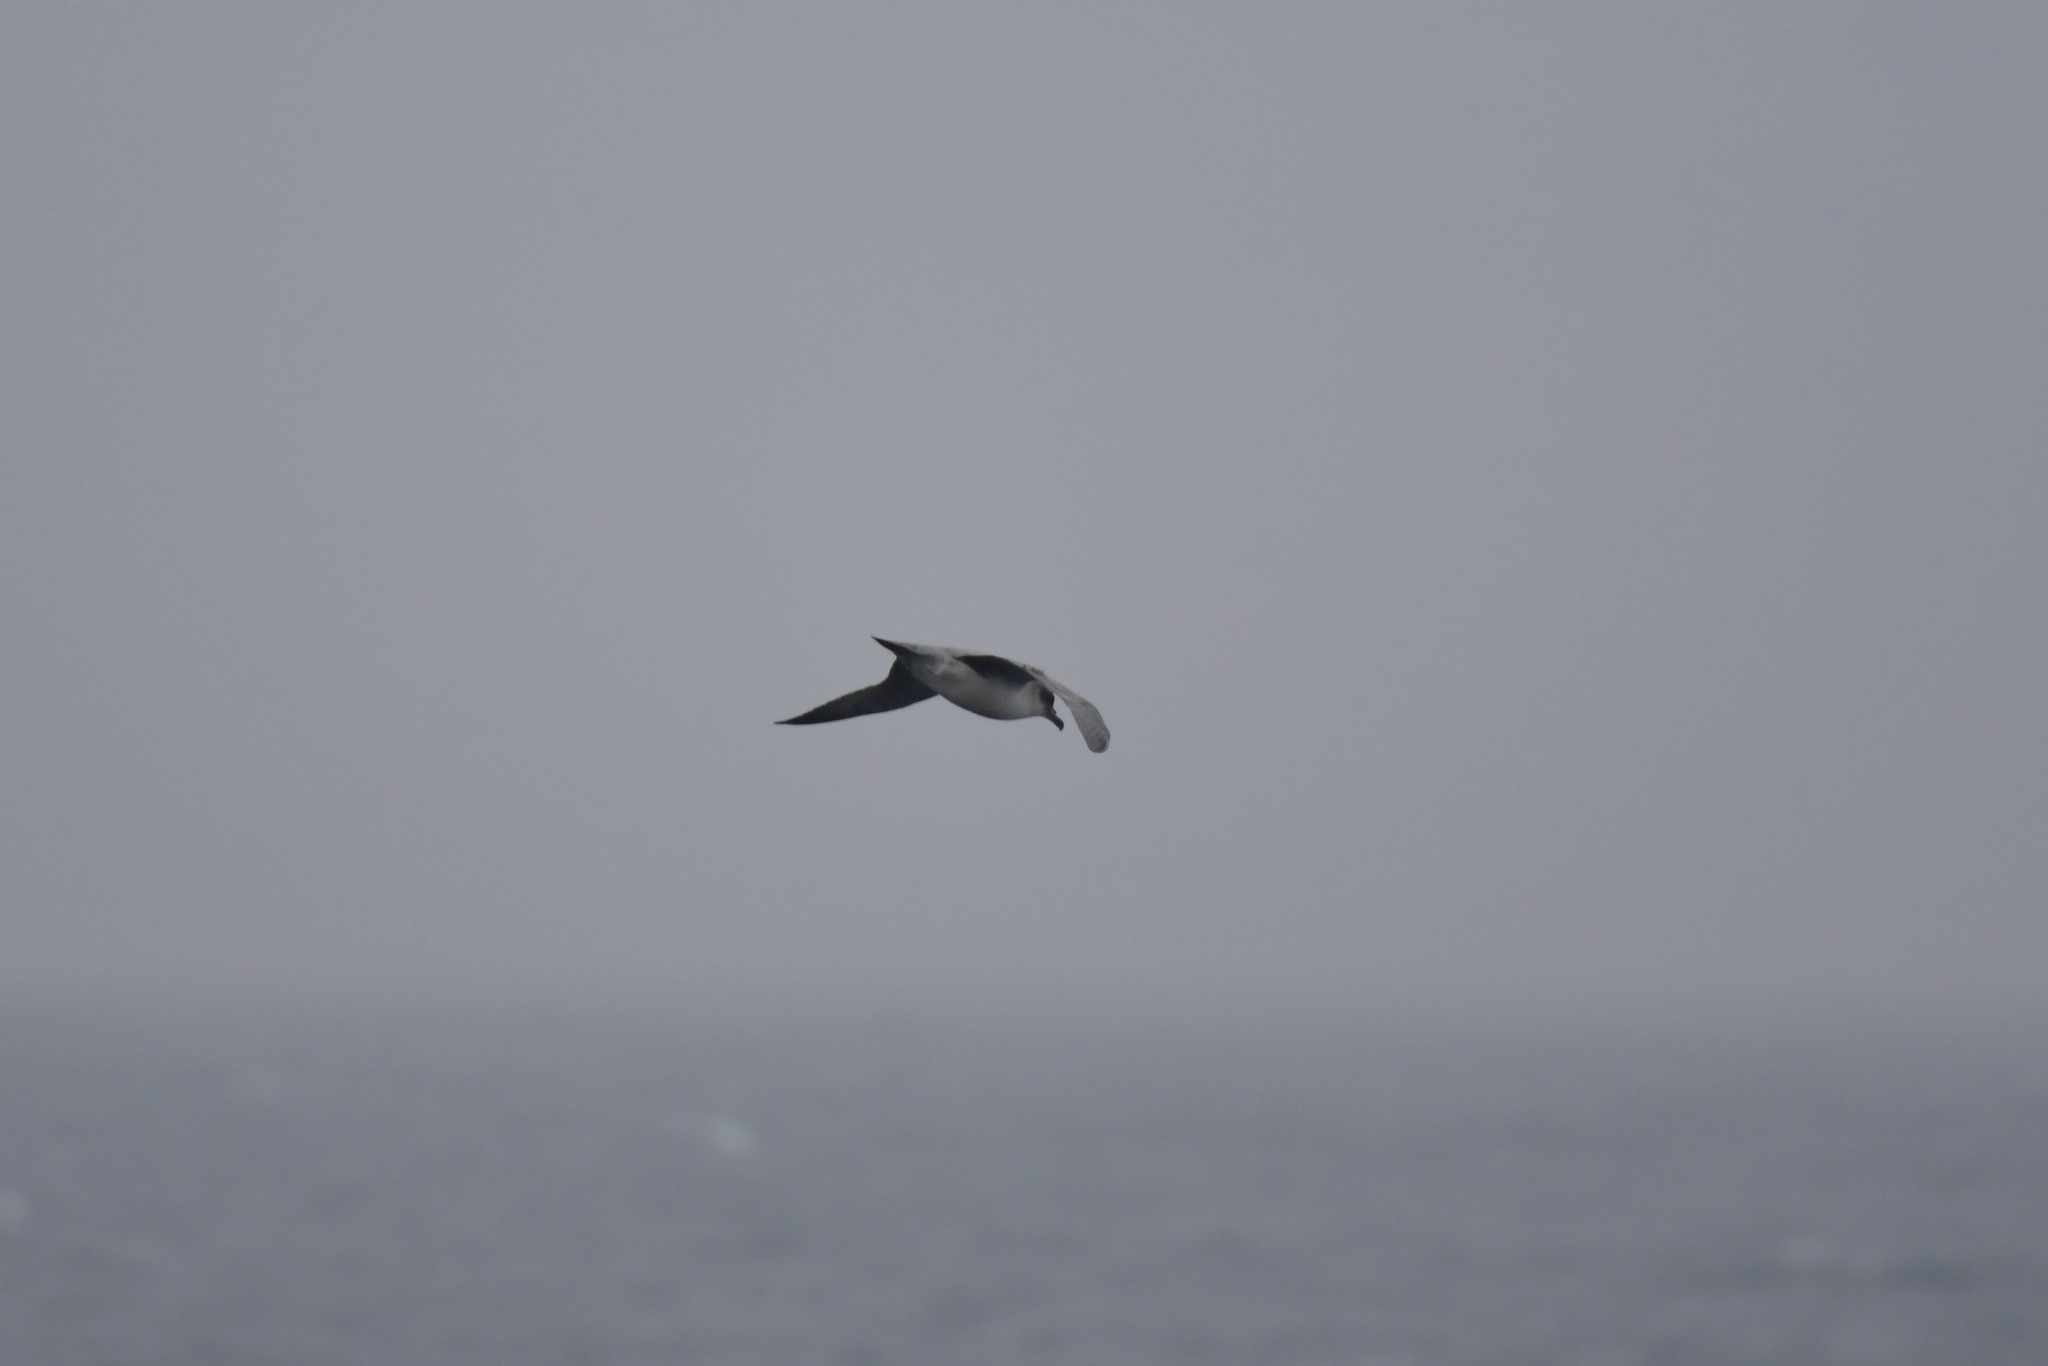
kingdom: Animalia
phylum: Chordata
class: Aves
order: Procellariiformes
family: Procellariidae
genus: Procellaria
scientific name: Procellaria cinerea
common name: Grey petrel
